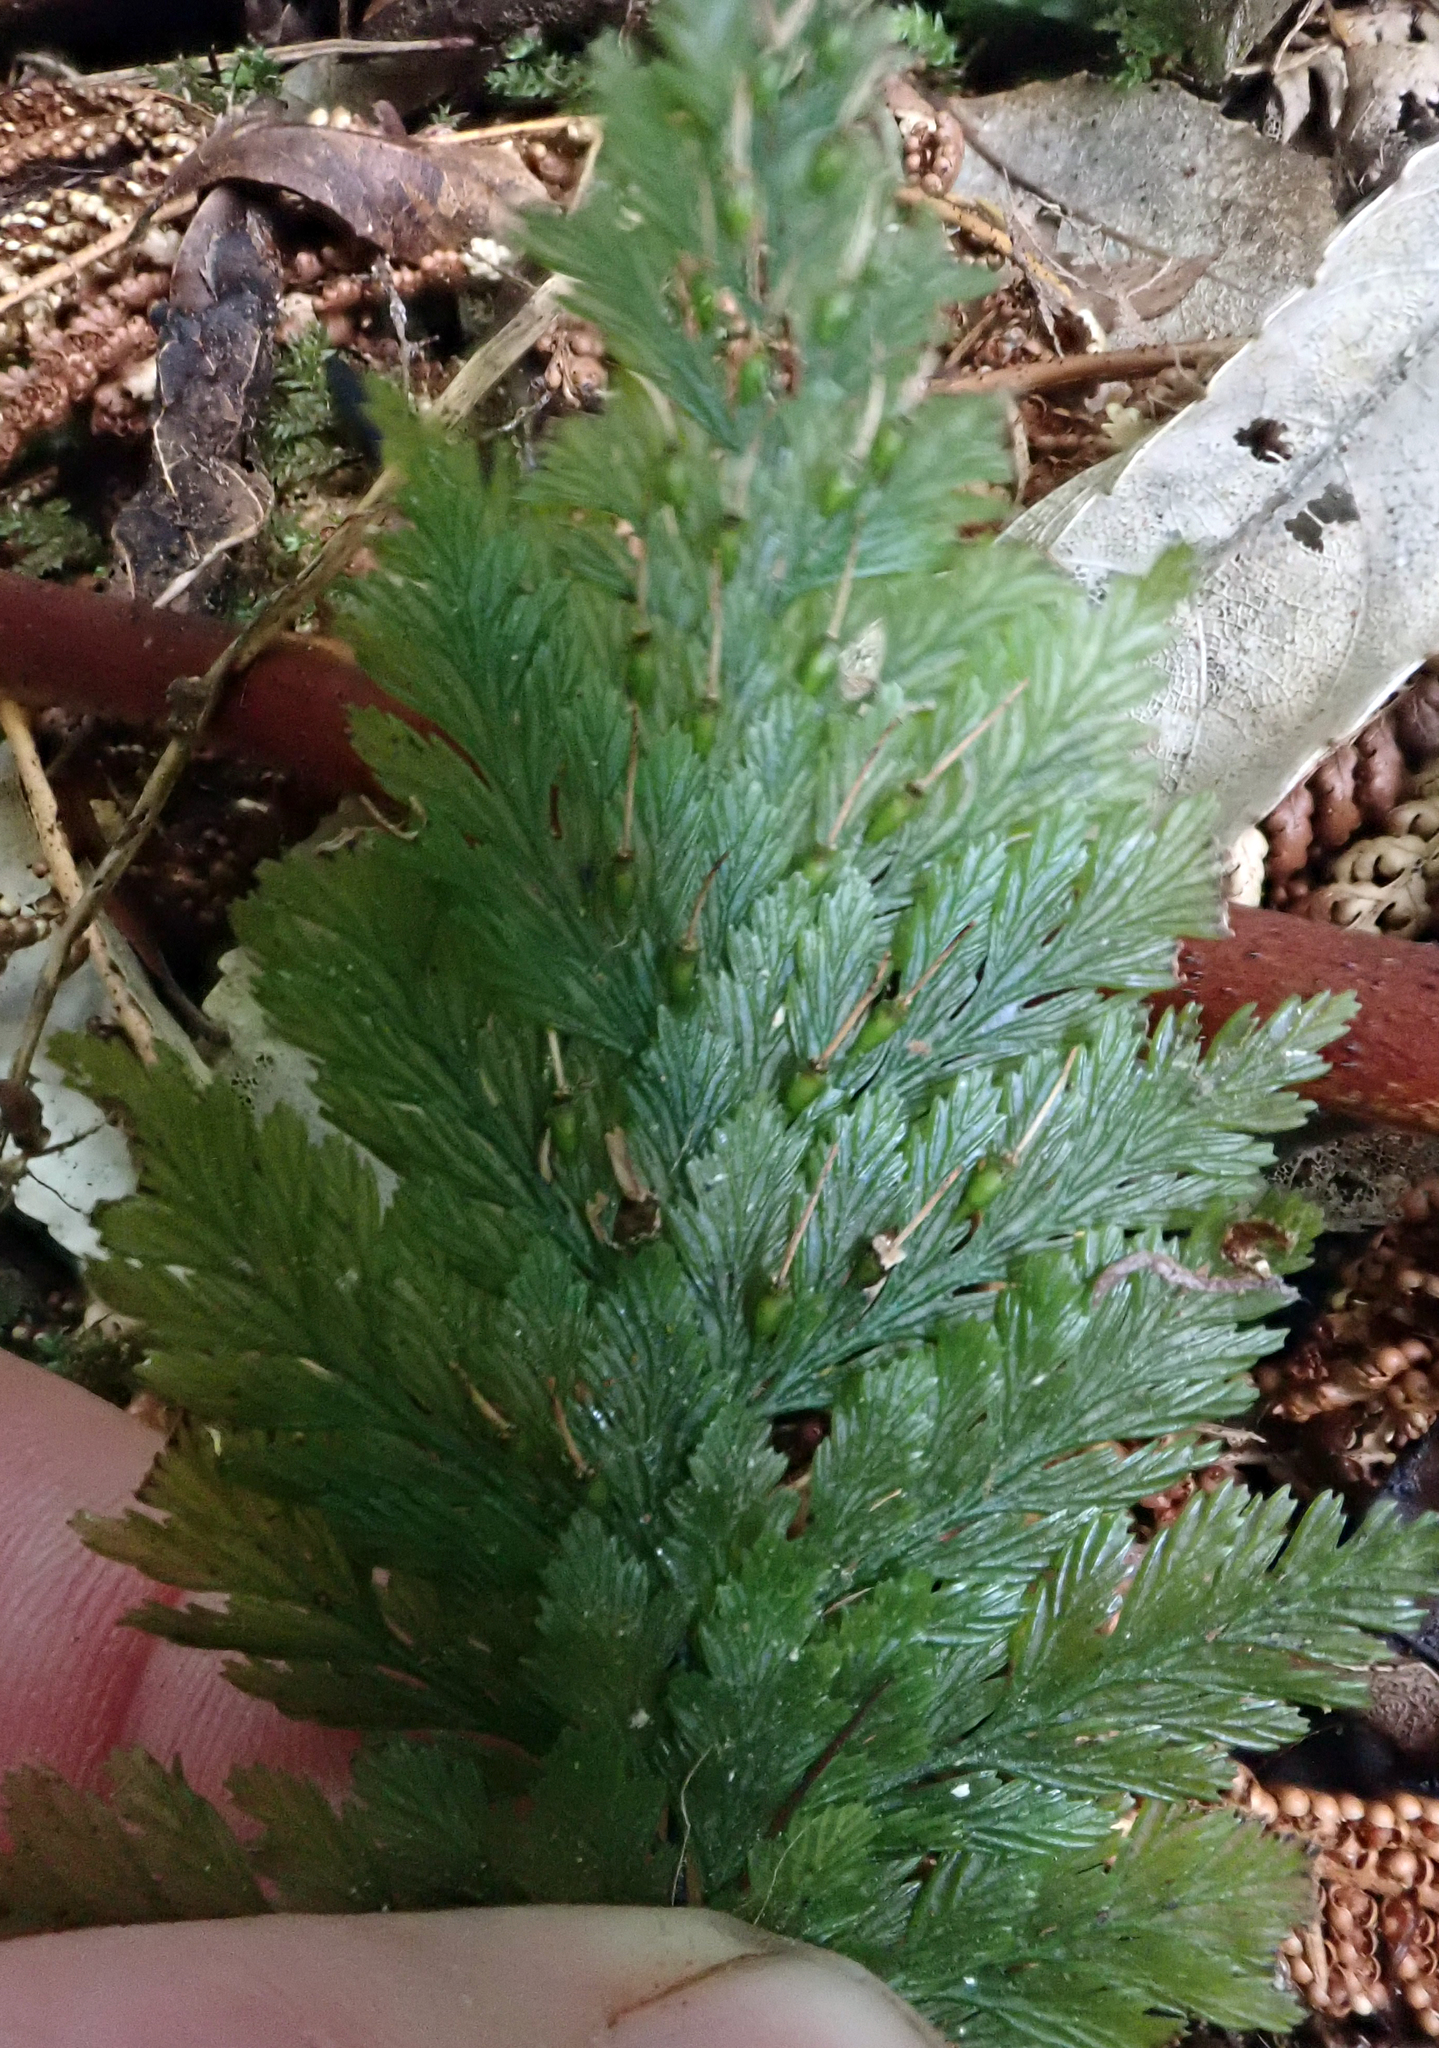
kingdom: Plantae
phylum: Tracheophyta
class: Polypodiopsida
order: Hymenophyllales
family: Hymenophyllaceae
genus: Abrodictyum
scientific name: Abrodictyum elongatum
